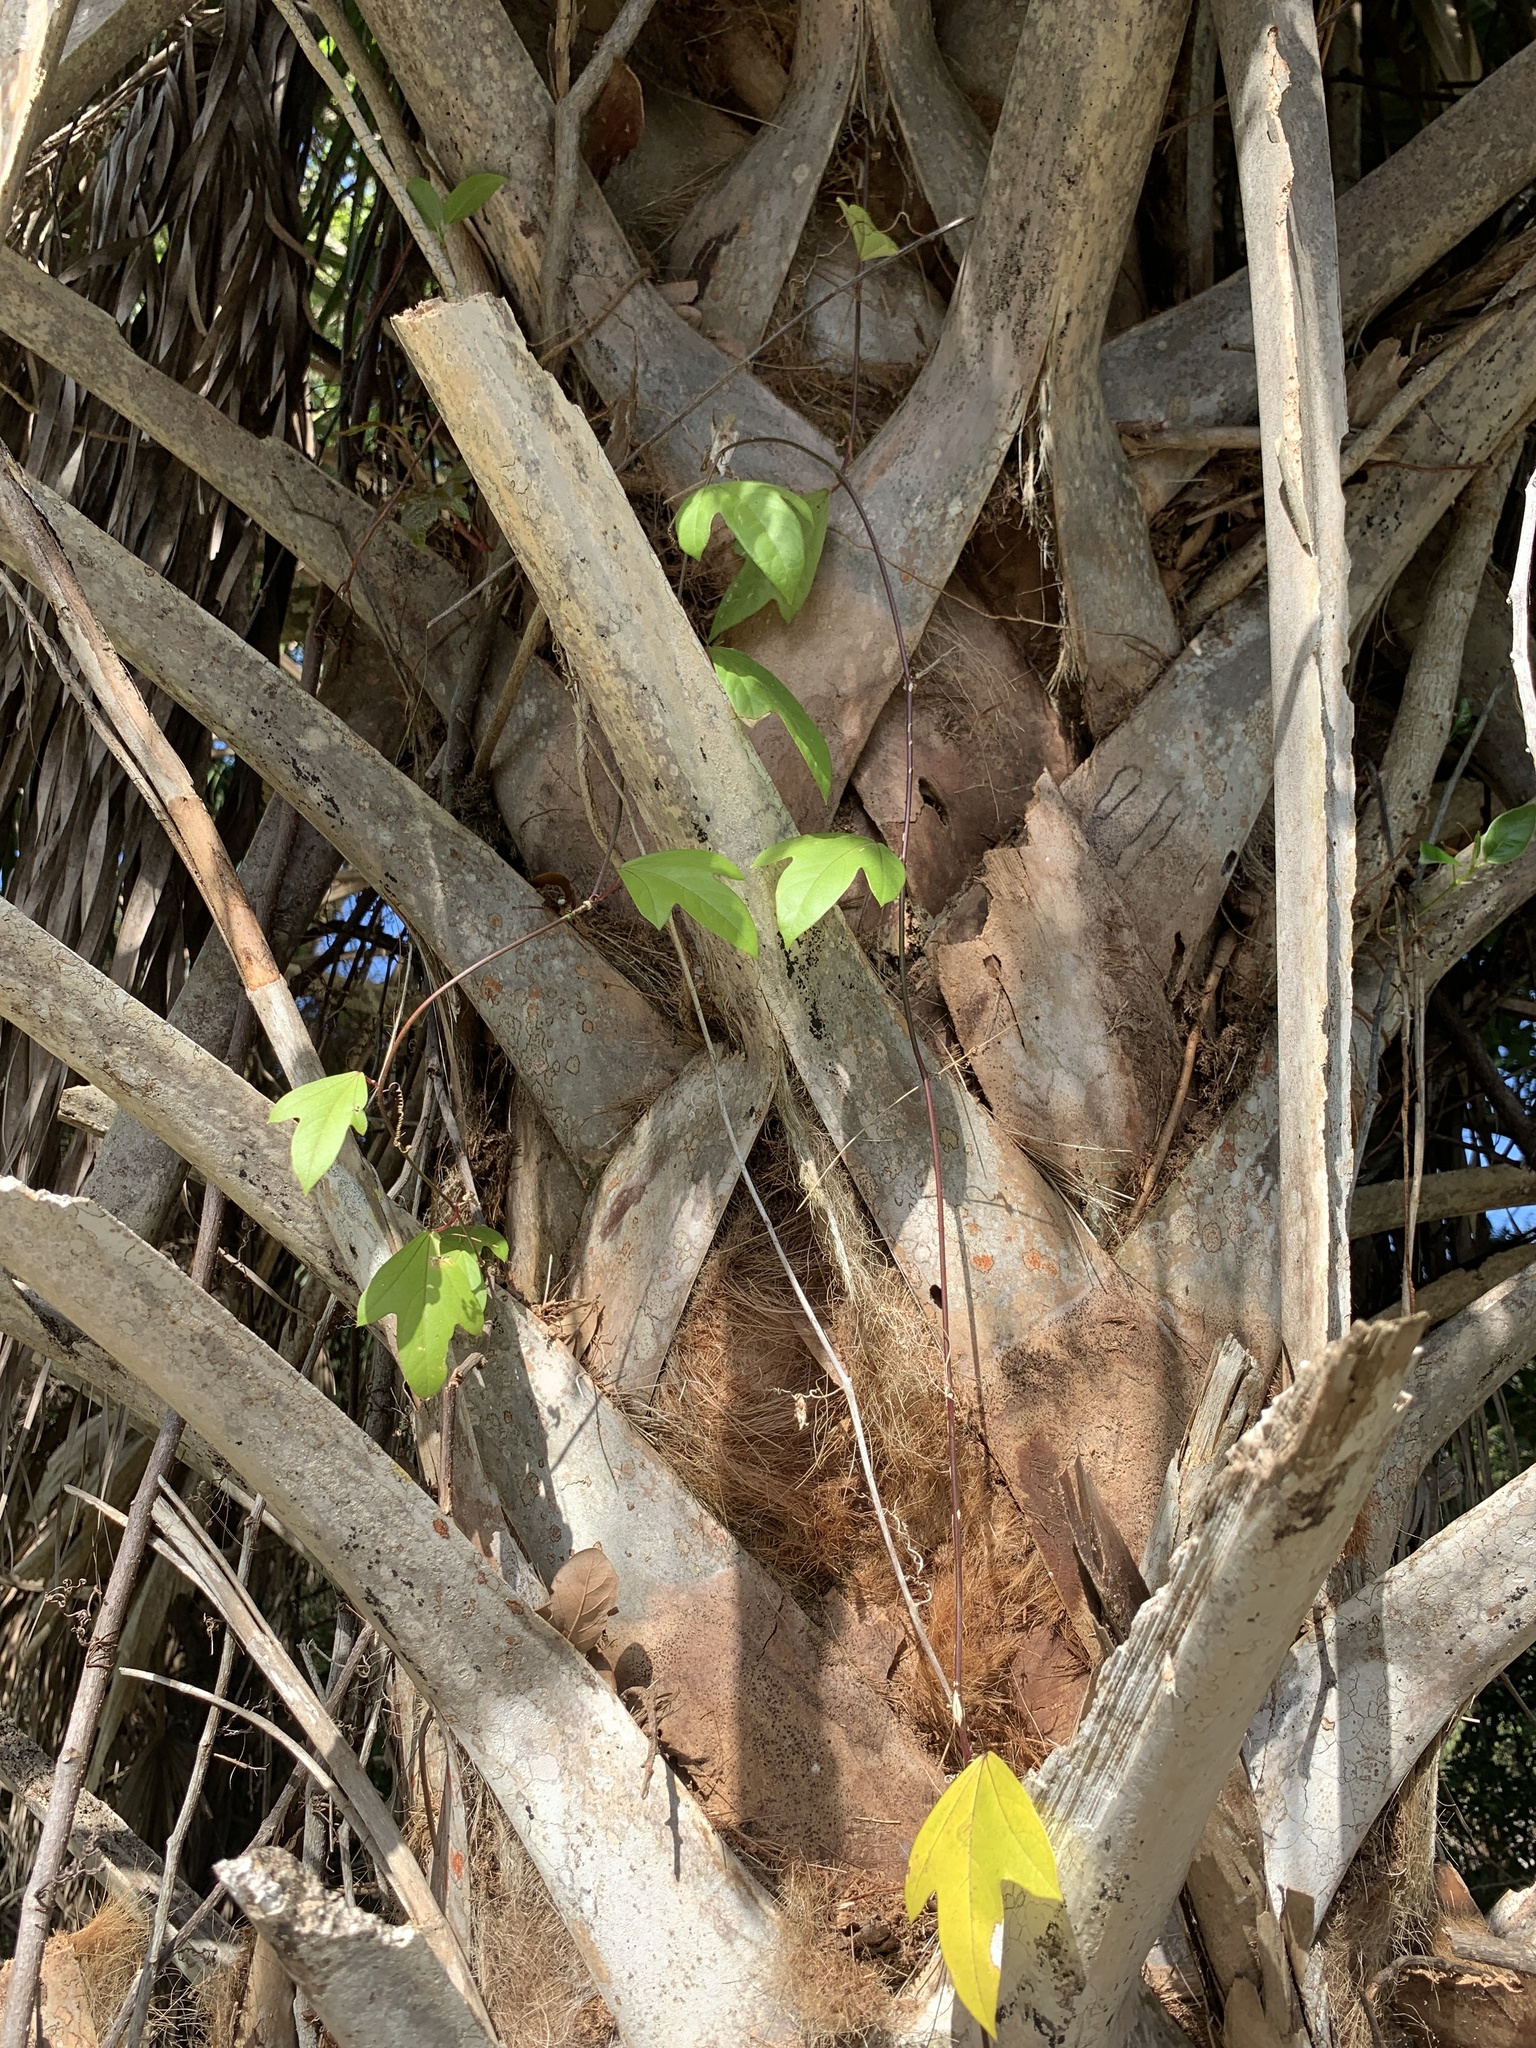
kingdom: Plantae
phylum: Tracheophyta
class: Magnoliopsida
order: Malpighiales
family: Passifloraceae
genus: Passiflora
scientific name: Passiflora pallida
